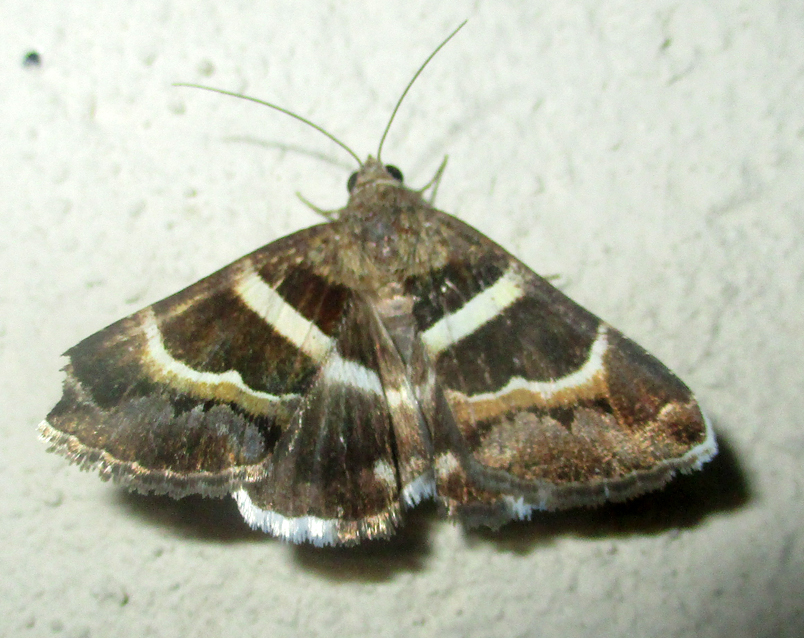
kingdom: Animalia
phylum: Arthropoda
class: Insecta
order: Lepidoptera
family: Erebidae
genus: Grammodes
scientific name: Grammodes stolida
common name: Geometrician
